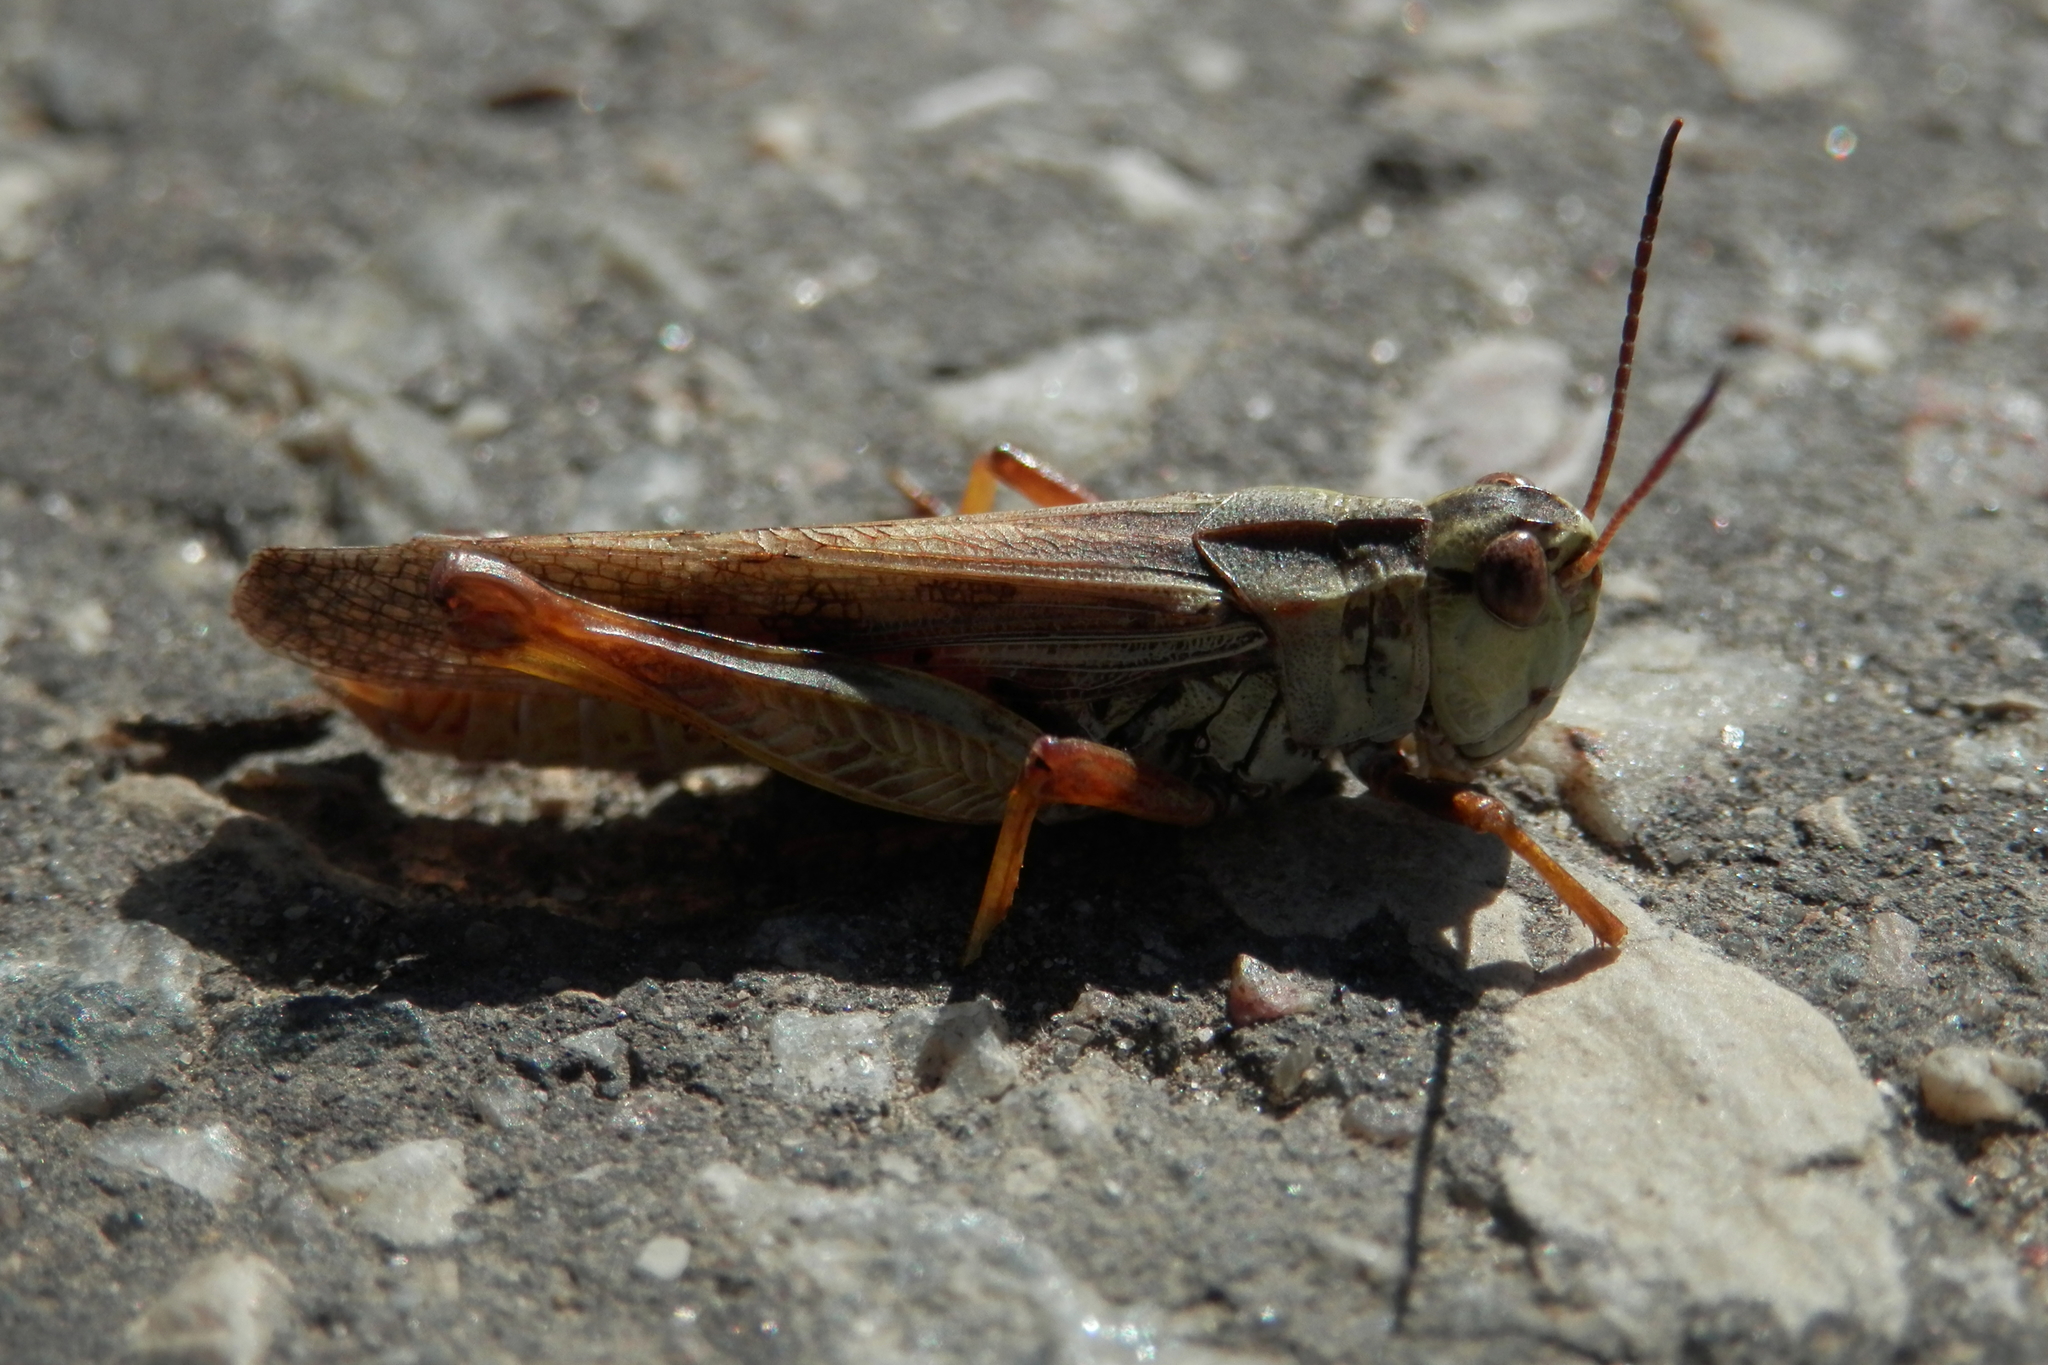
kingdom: Animalia
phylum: Arthropoda
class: Insecta
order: Orthoptera
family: Acrididae
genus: Camnula
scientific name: Camnula pellucida
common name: Clear-winged grasshopper
